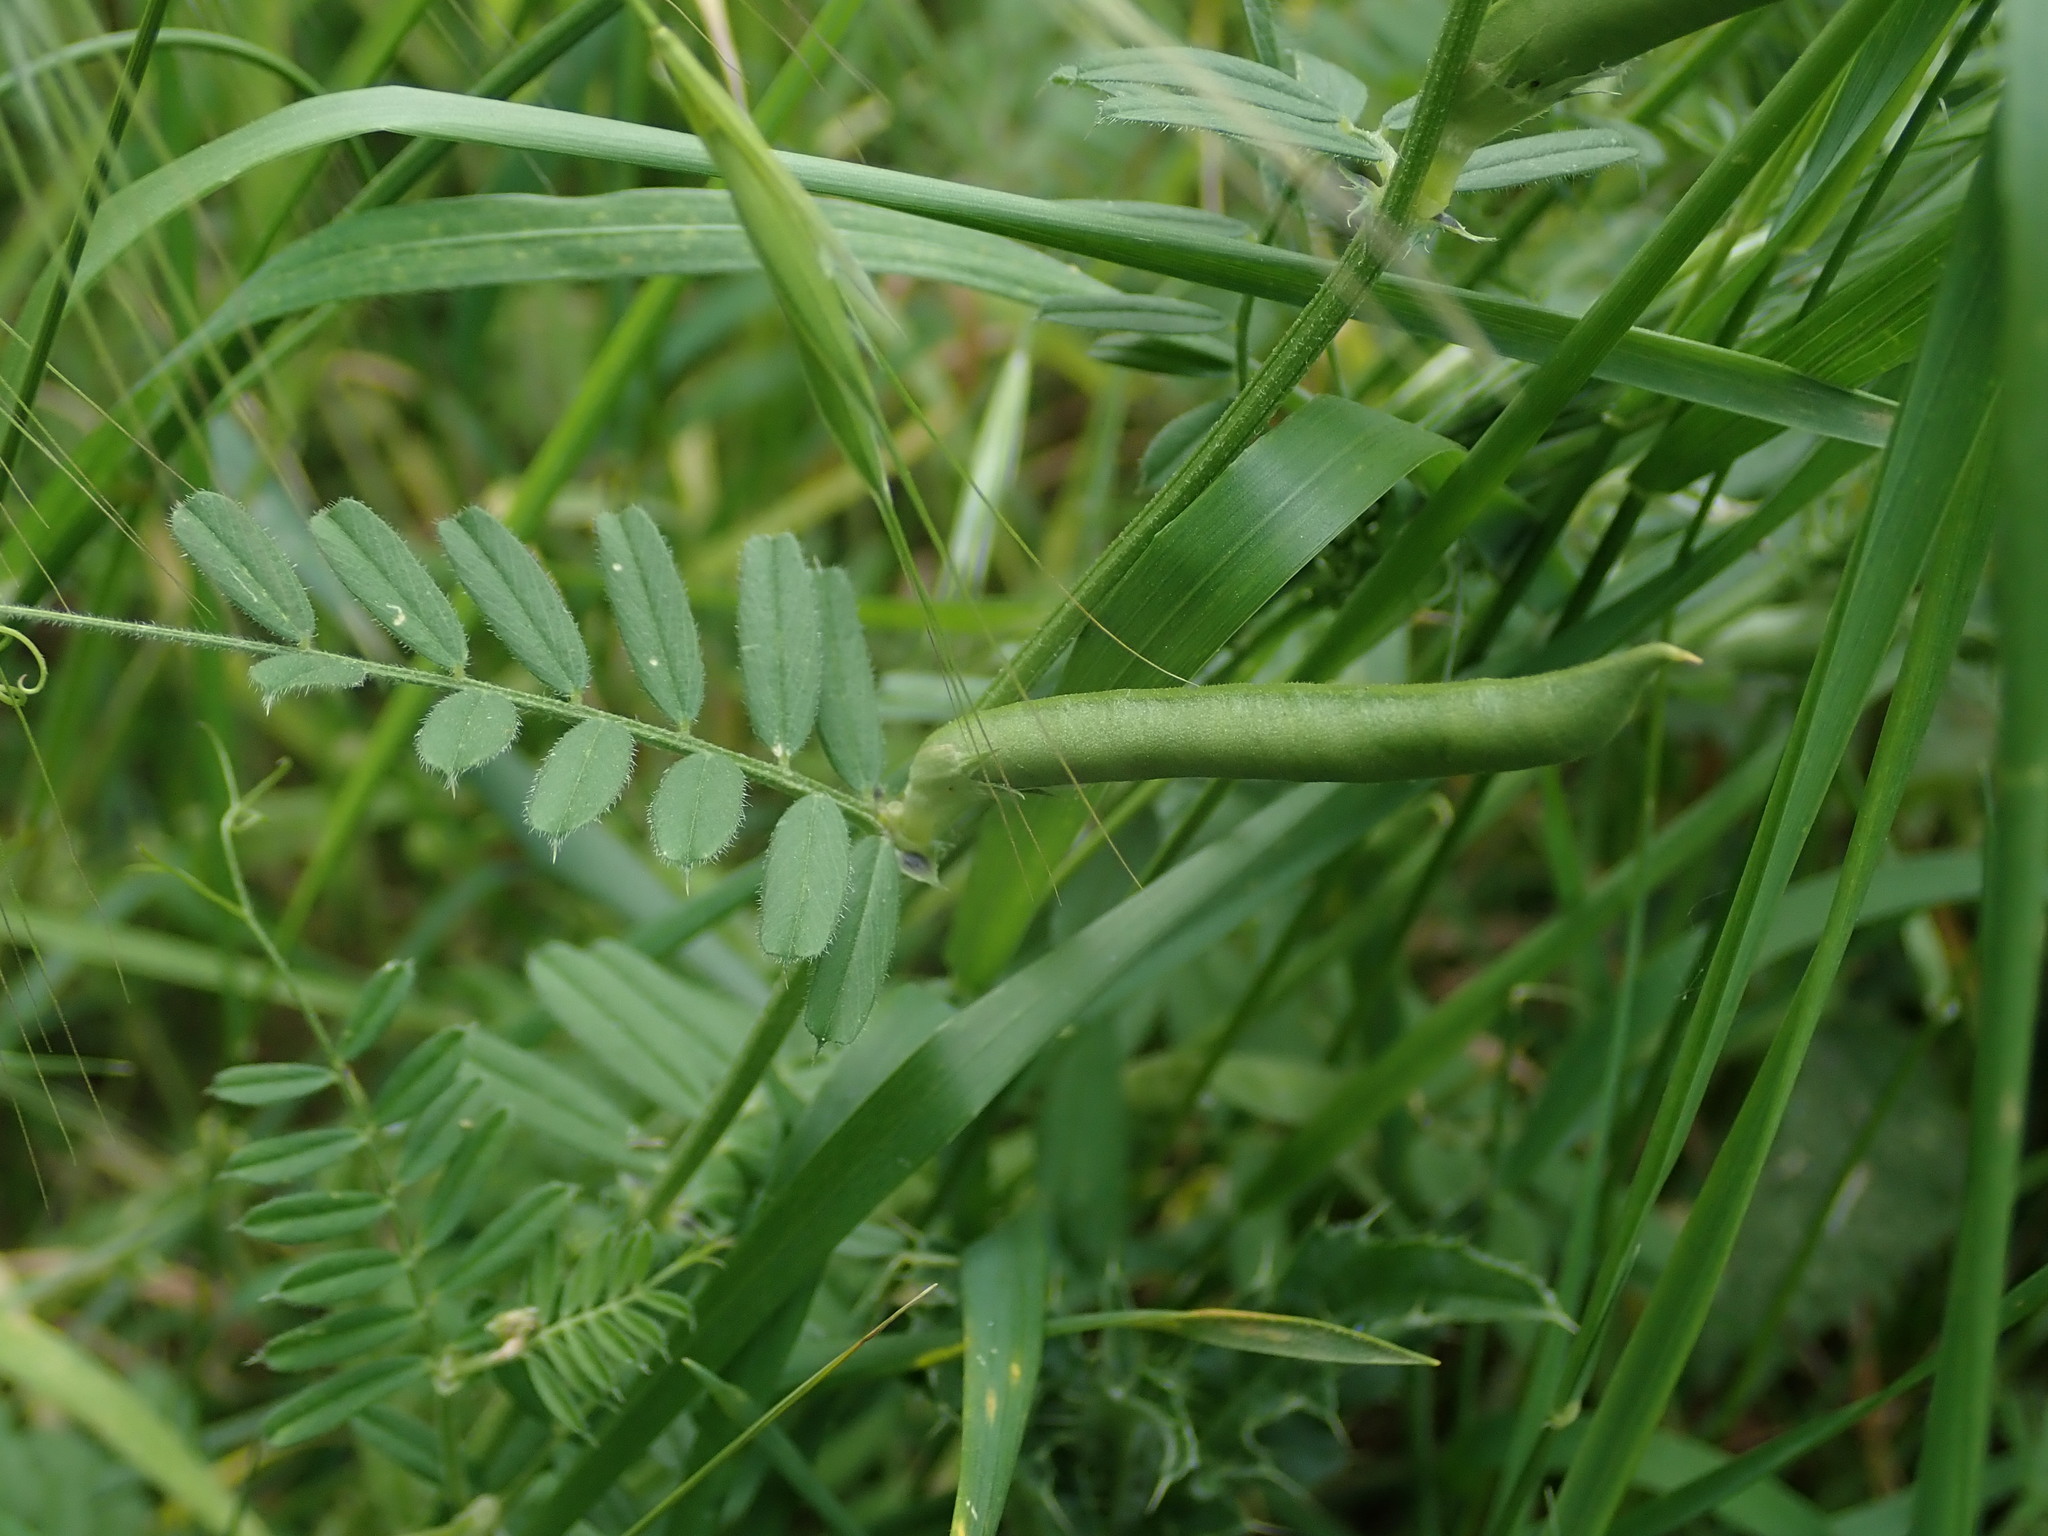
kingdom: Plantae
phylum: Tracheophyta
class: Magnoliopsida
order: Fabales
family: Fabaceae
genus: Vicia
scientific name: Vicia sativa
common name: Garden vetch
